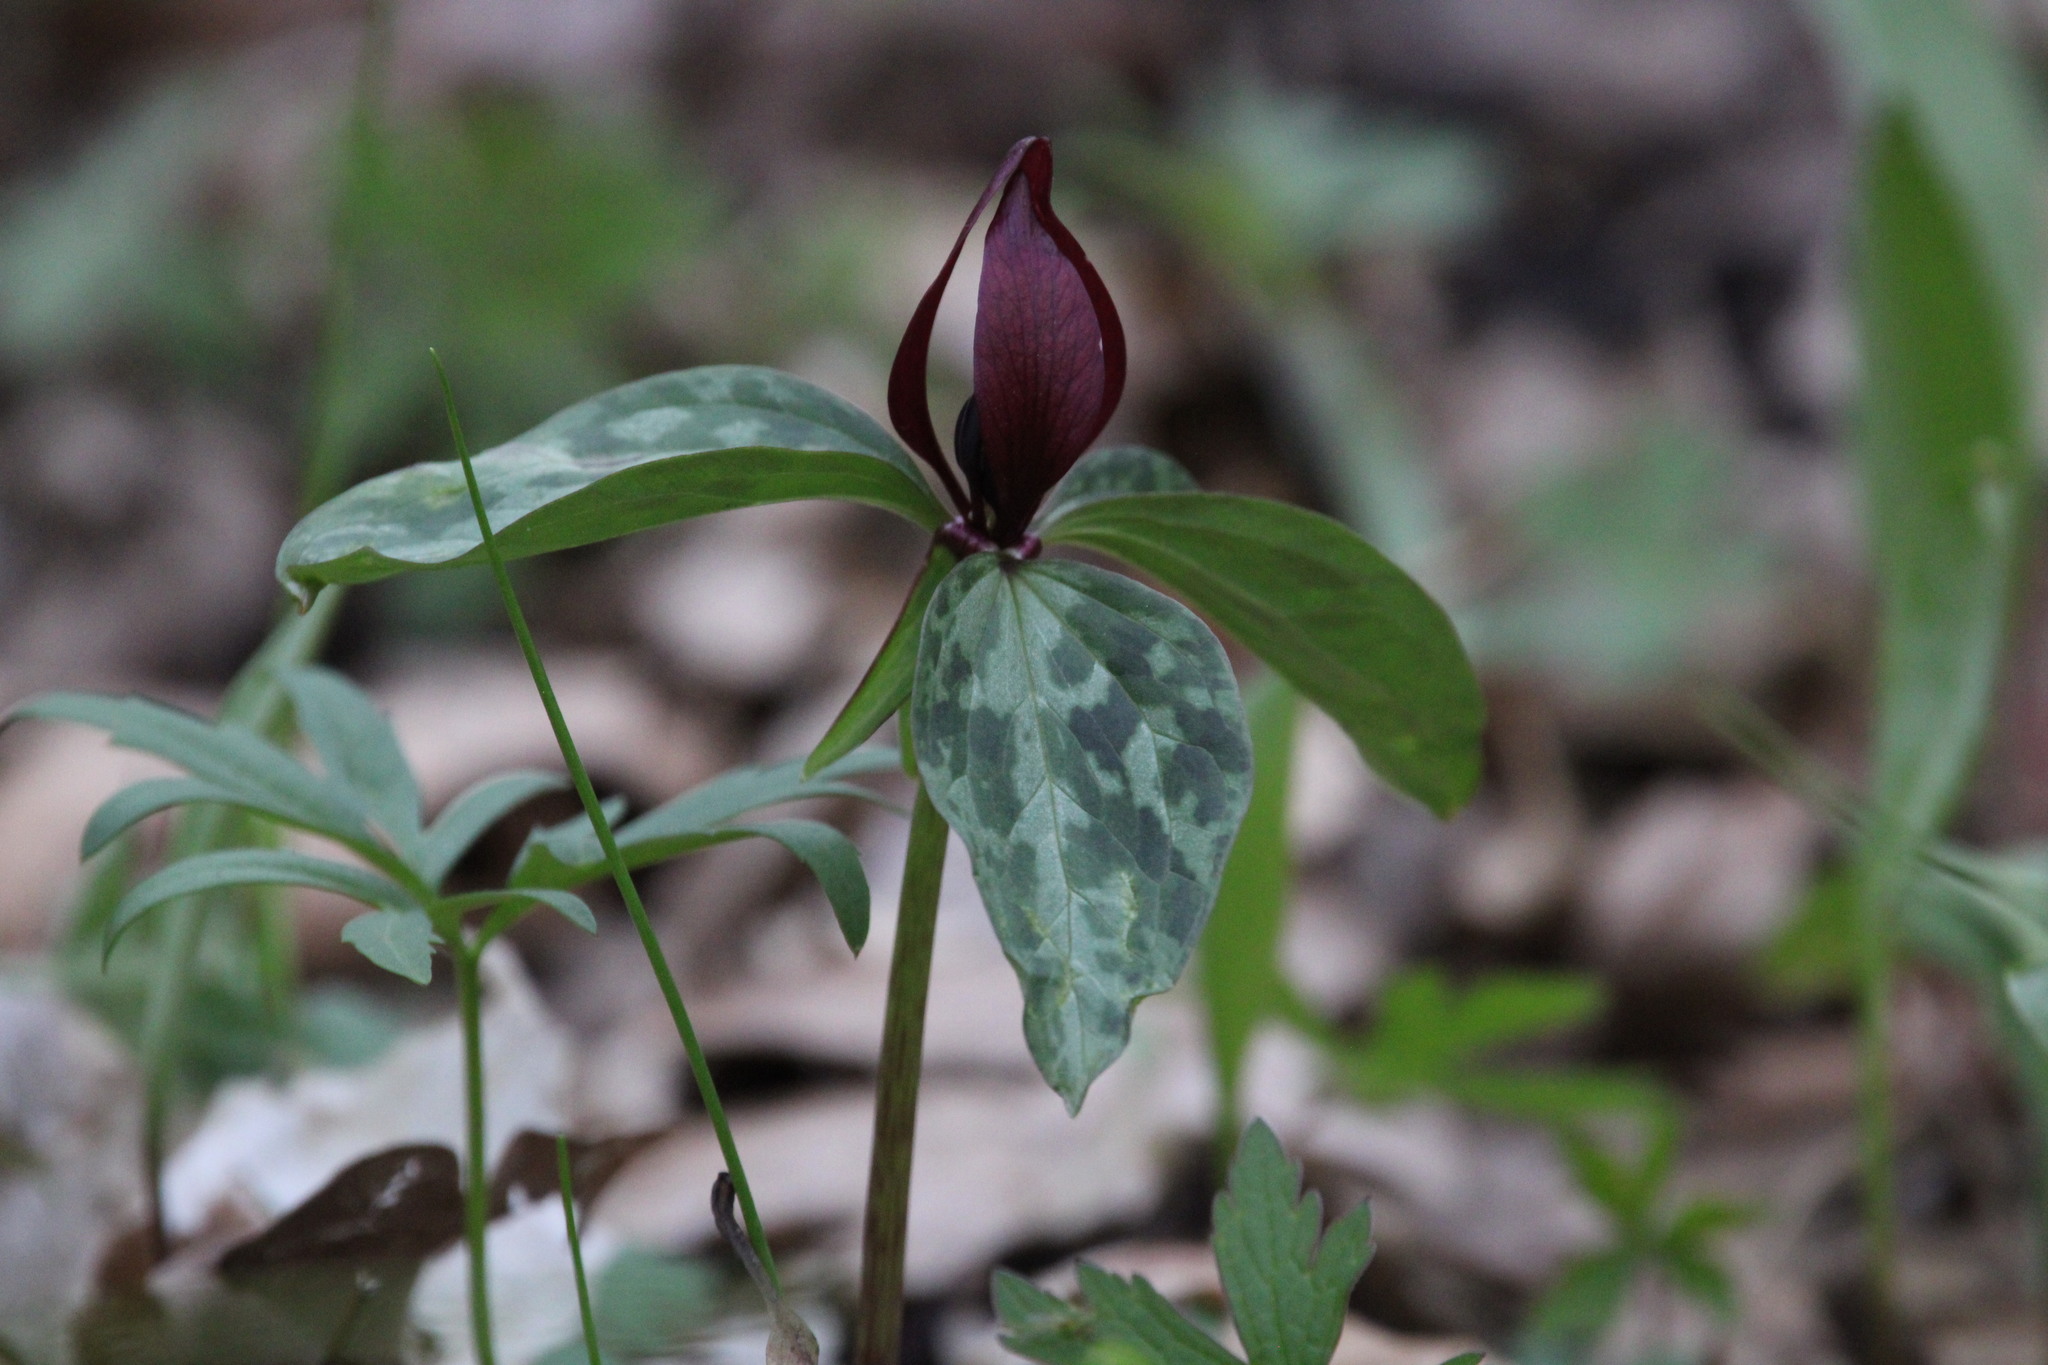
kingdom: Plantae
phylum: Tracheophyta
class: Liliopsida
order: Liliales
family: Melanthiaceae
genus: Trillium
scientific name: Trillium recurvatum
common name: Bloody butcher
